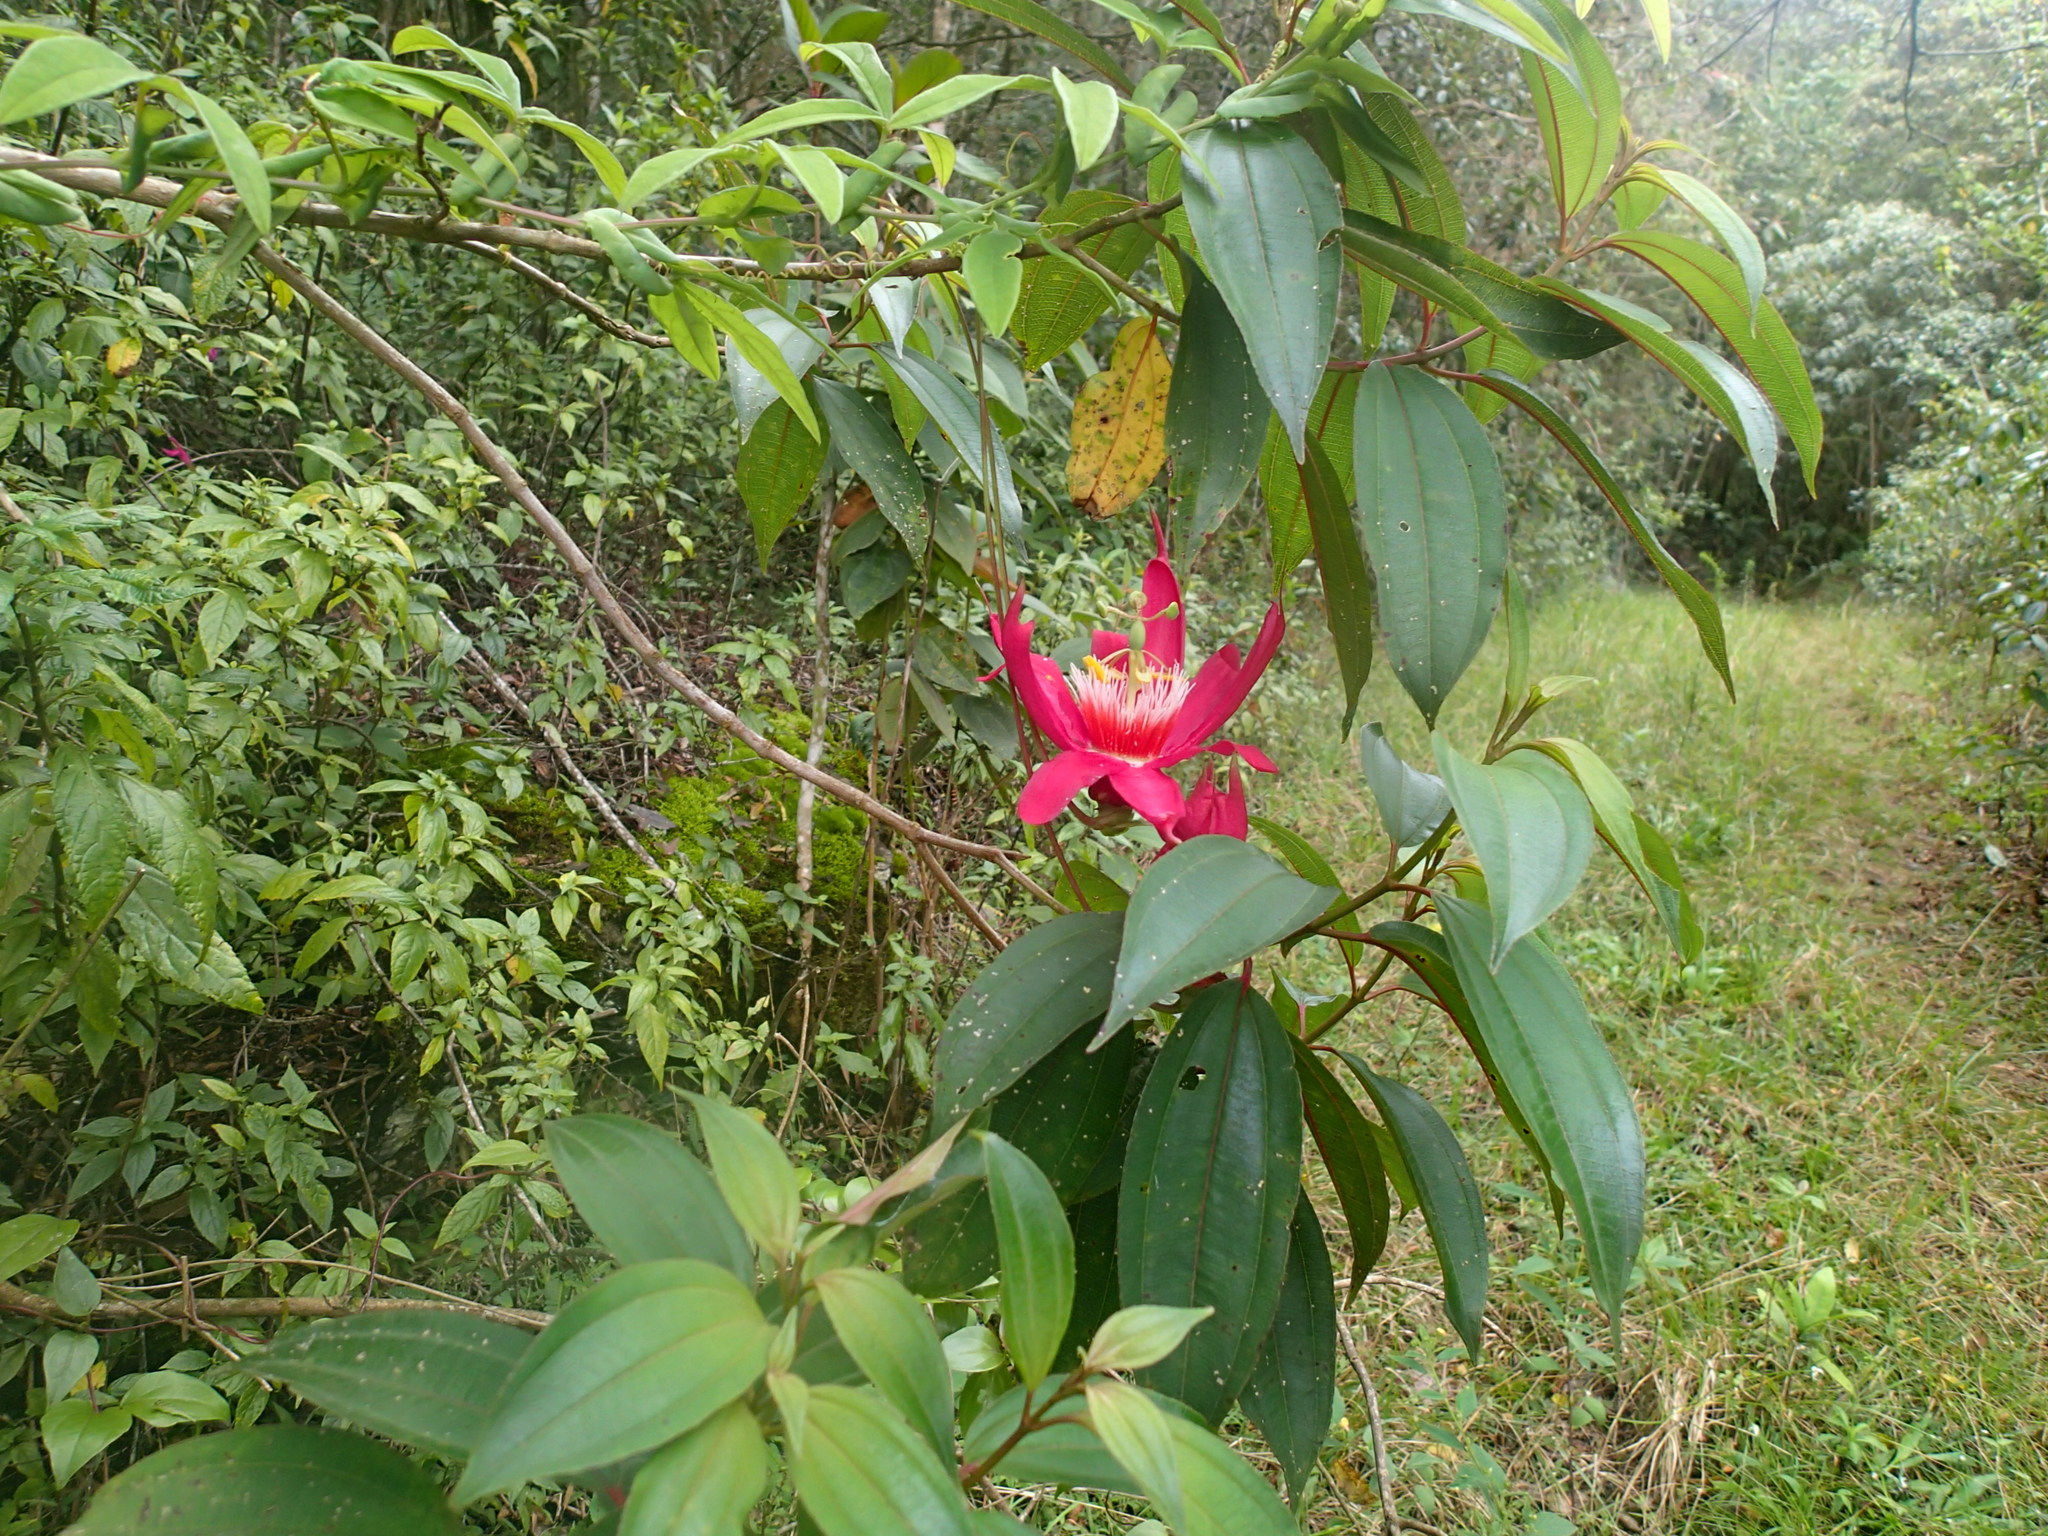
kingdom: Plantae
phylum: Tracheophyta
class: Magnoliopsida
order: Malpighiales
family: Passifloraceae
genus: Passiflora
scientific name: Passiflora gritensis
